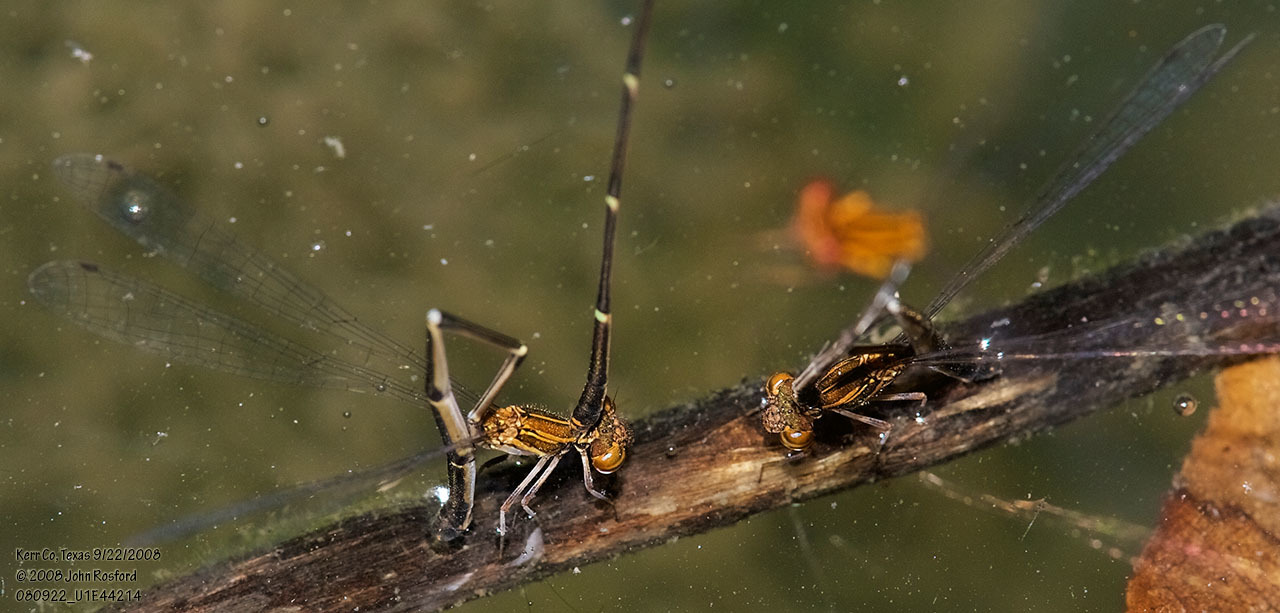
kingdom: Animalia
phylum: Arthropoda
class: Insecta
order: Odonata
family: Coenagrionidae
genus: Protoneura
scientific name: Protoneura cara
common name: Orange-striped threadtail
